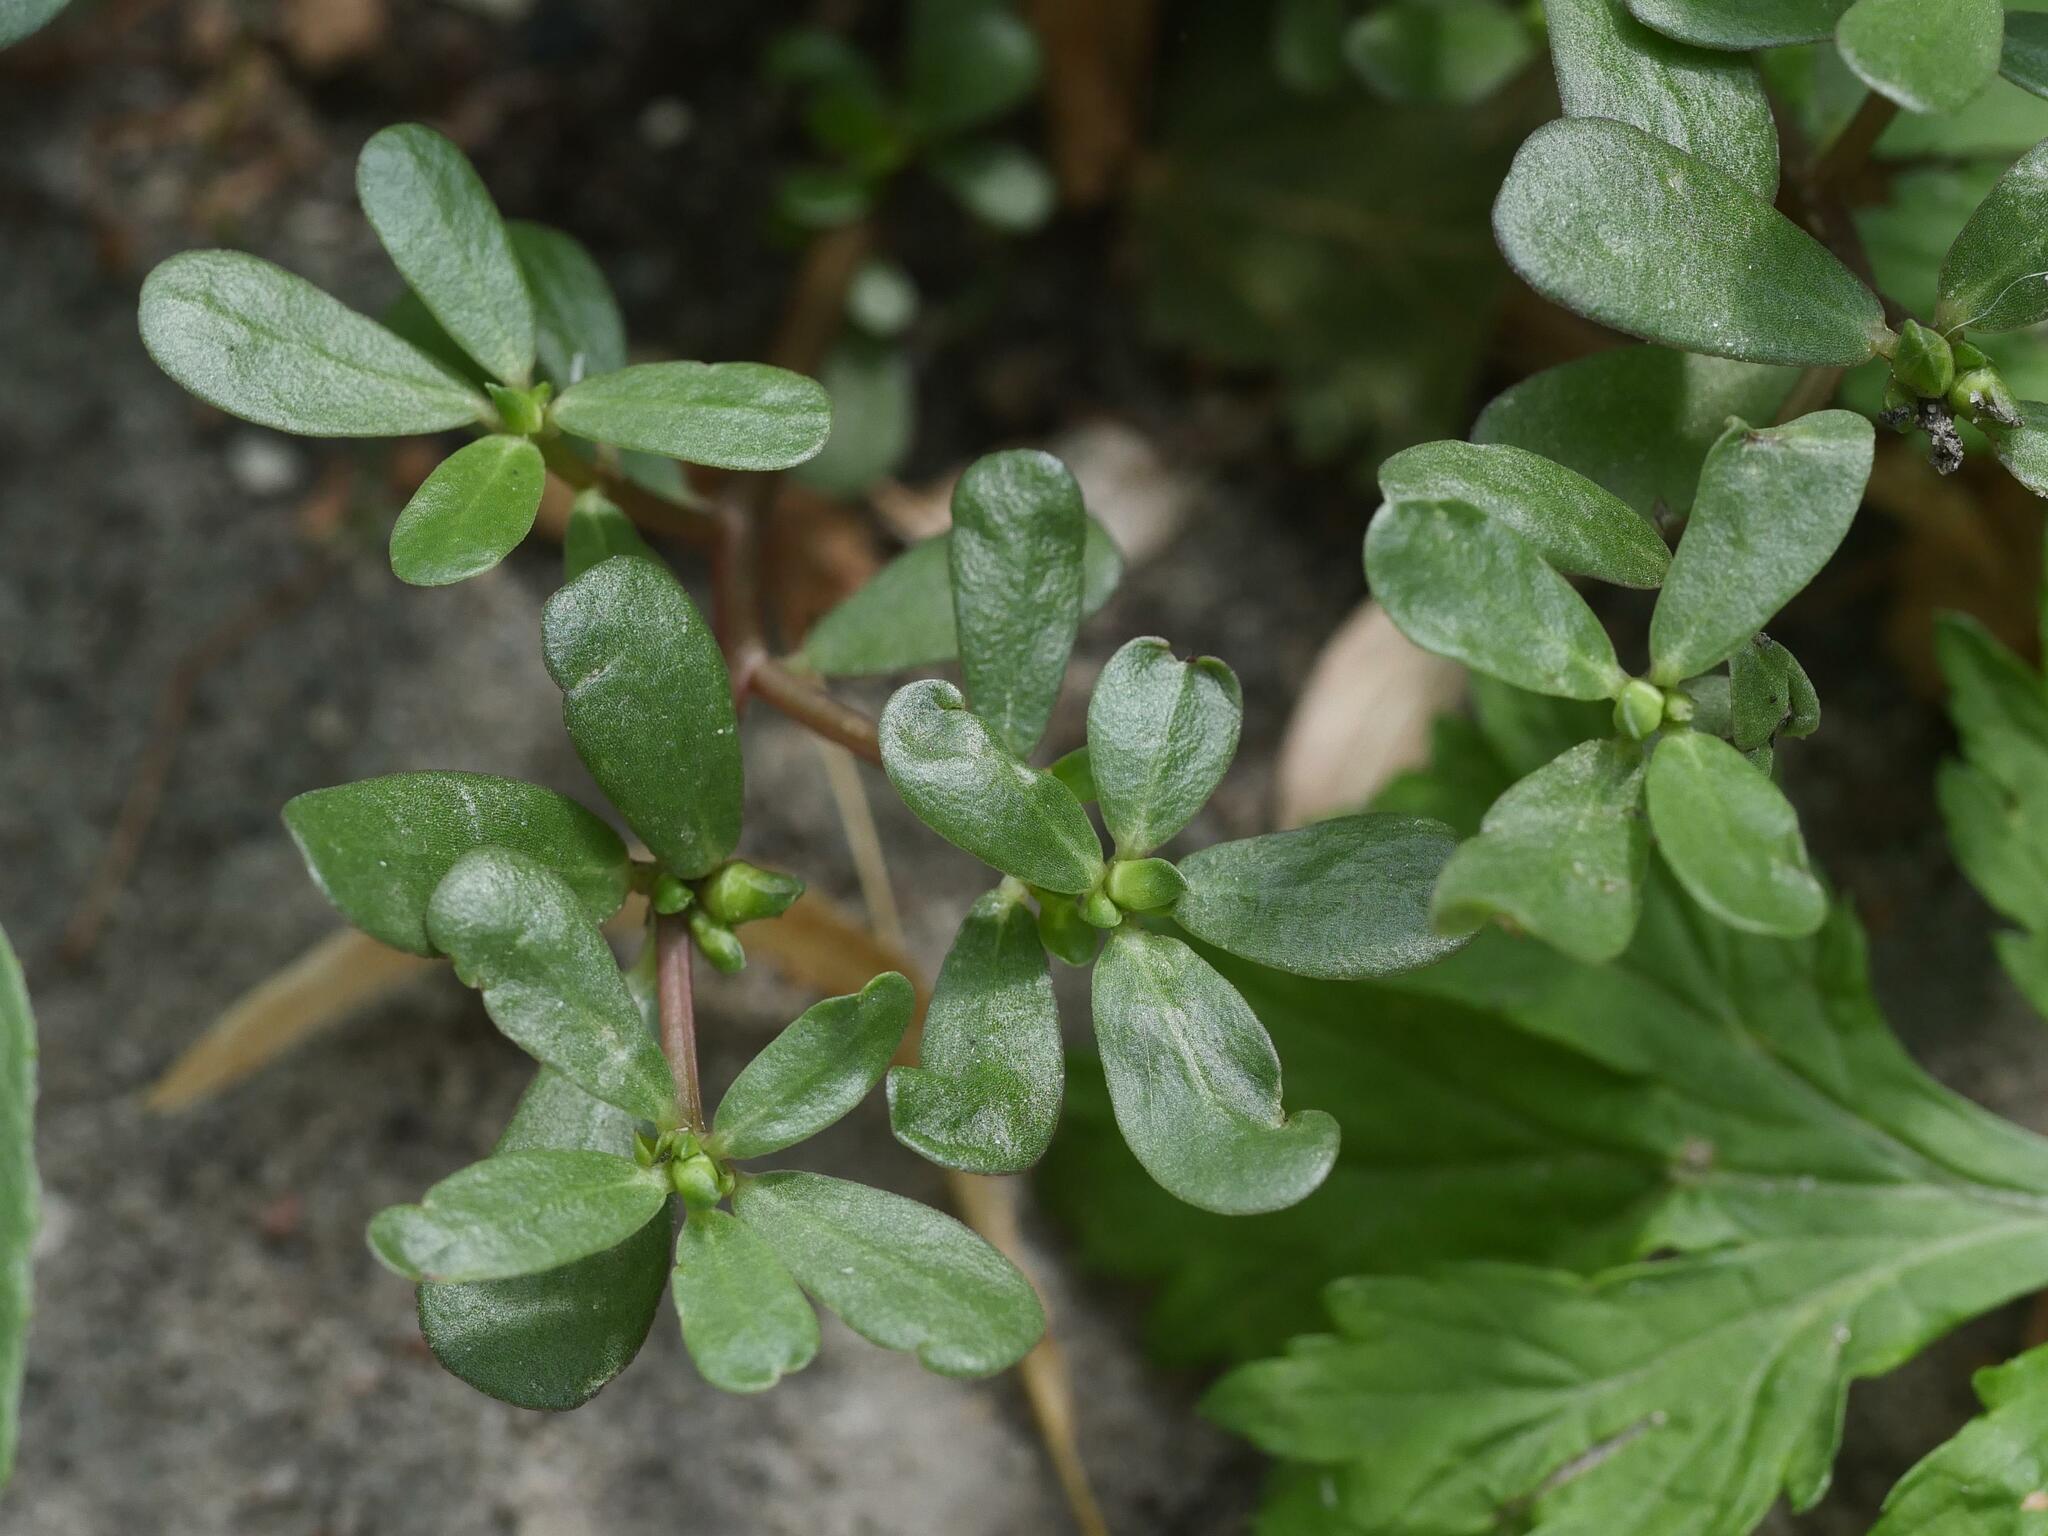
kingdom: Plantae
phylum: Tracheophyta
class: Magnoliopsida
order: Caryophyllales
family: Portulacaceae
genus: Portulaca
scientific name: Portulaca oleracea
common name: Common purslane
